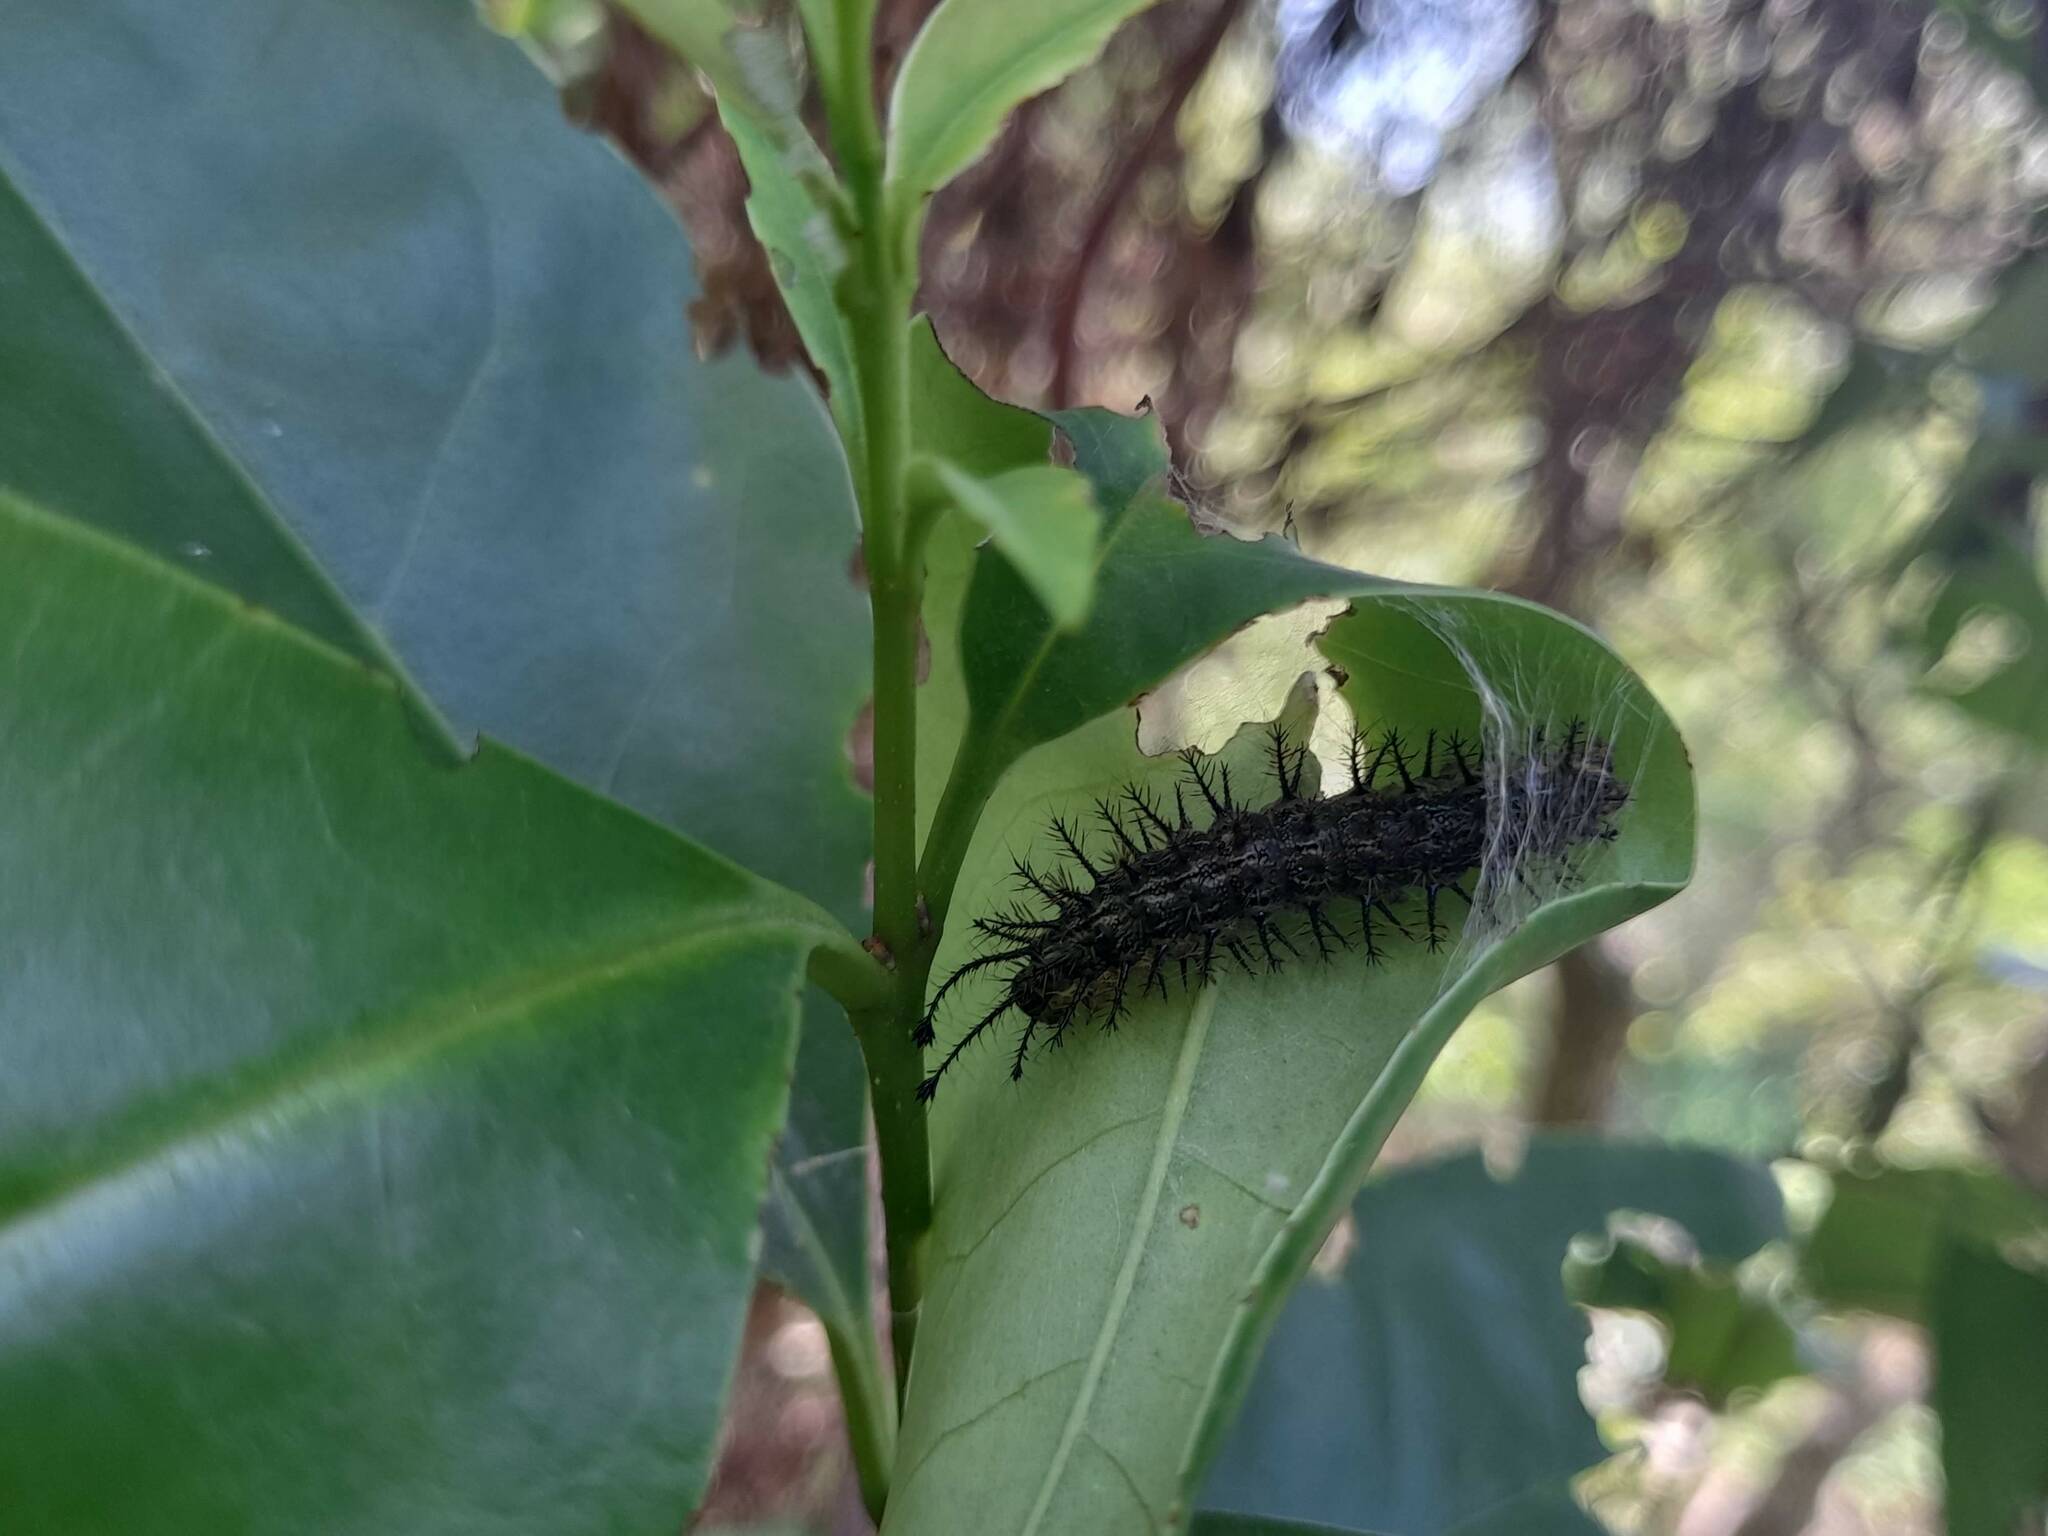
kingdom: Animalia
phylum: Arthropoda
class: Insecta
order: Lepidoptera
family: Saturniidae
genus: Hylesia
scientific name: Hylesia nigricans
